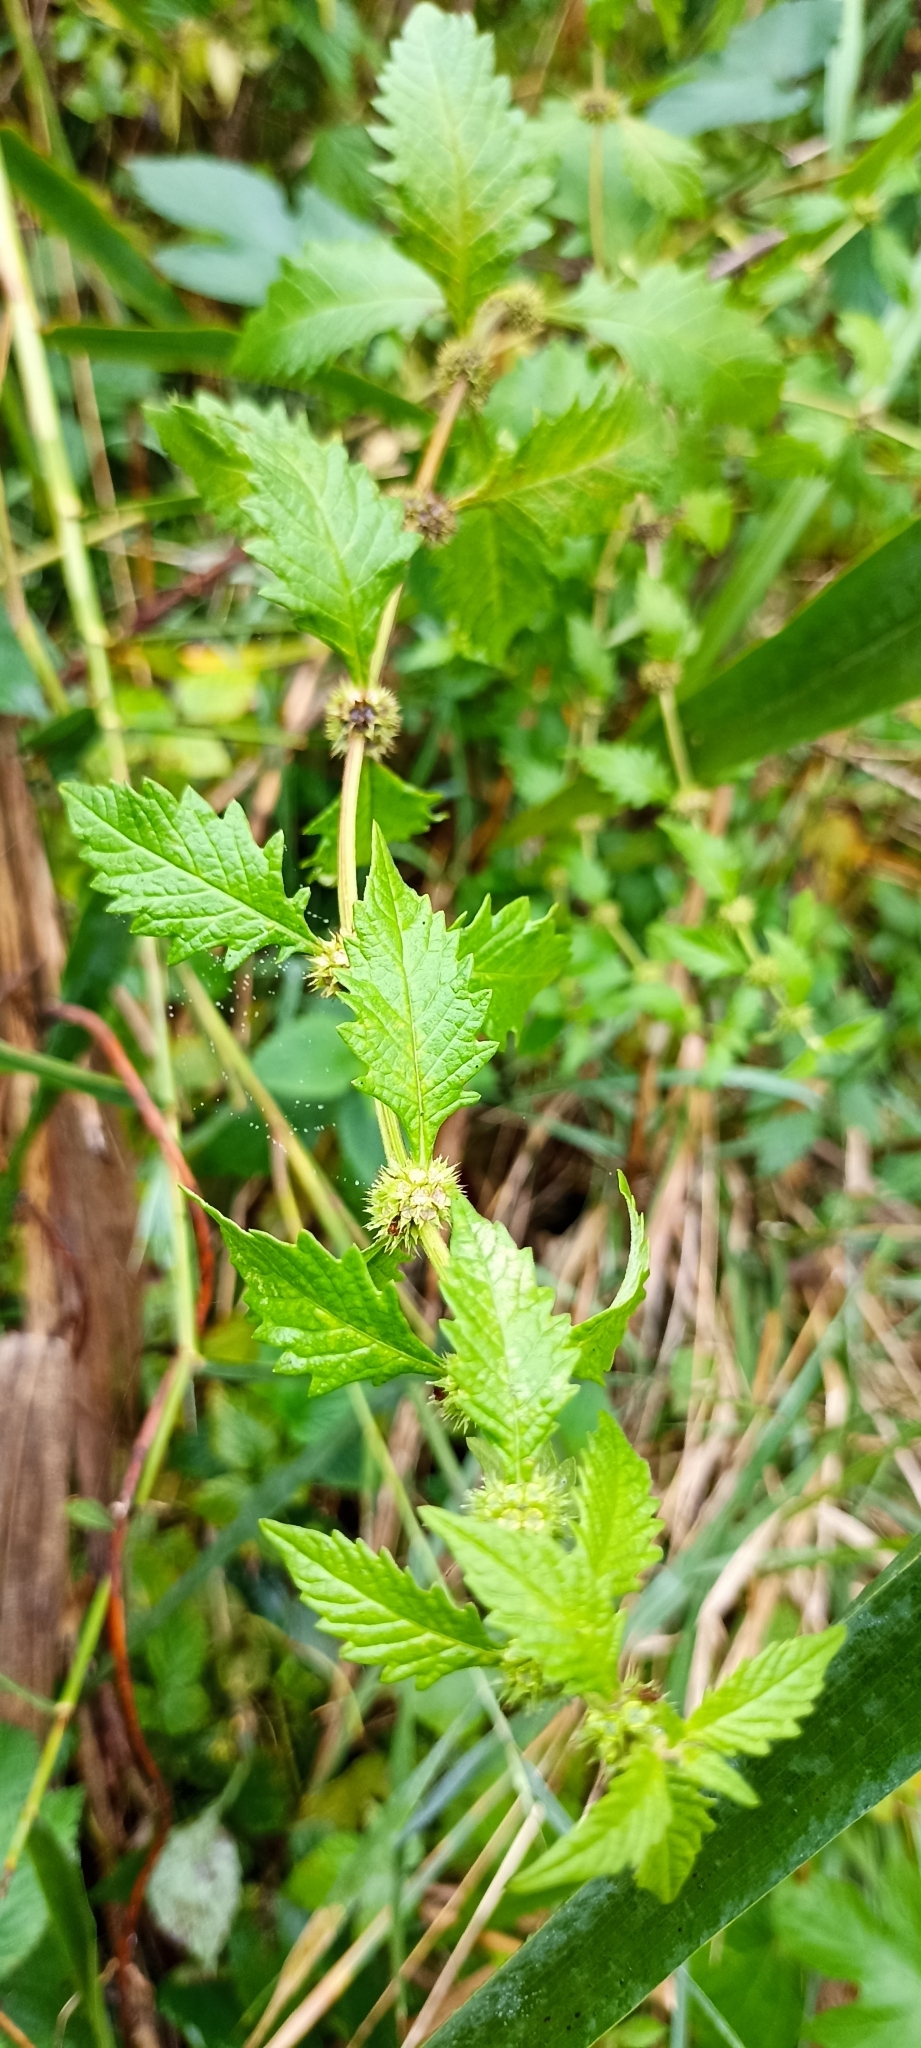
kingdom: Plantae
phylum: Tracheophyta
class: Magnoliopsida
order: Lamiales
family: Lamiaceae
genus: Lycopus
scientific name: Lycopus europaeus
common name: European bugleweed
